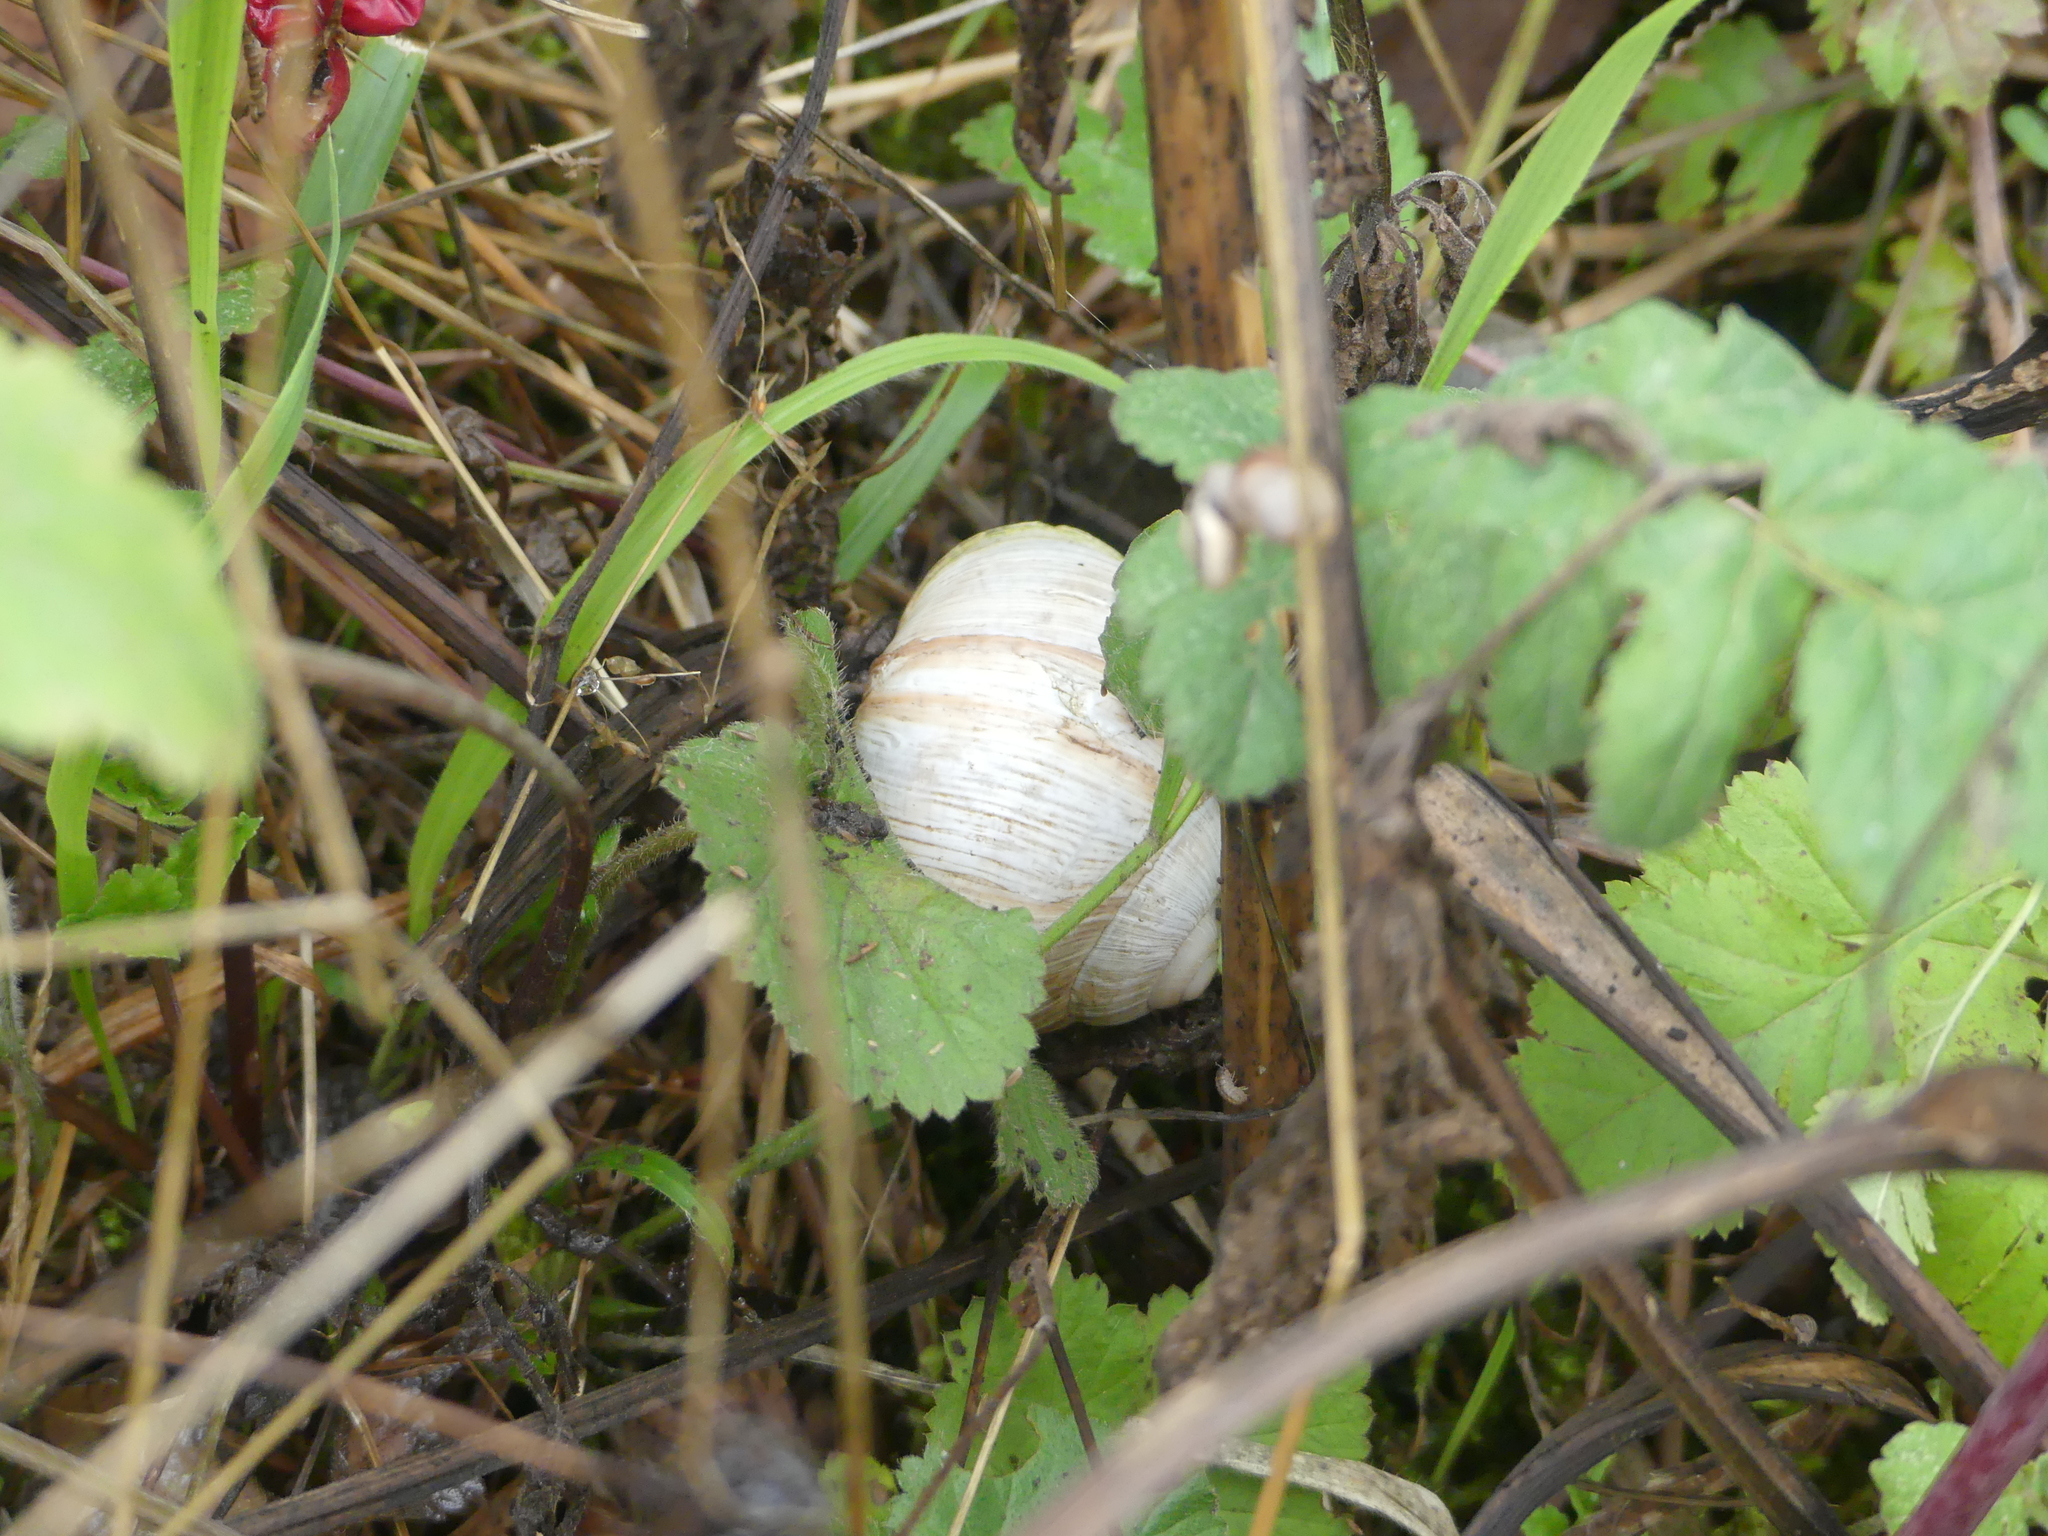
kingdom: Animalia
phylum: Mollusca
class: Gastropoda
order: Stylommatophora
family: Helicidae
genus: Helix
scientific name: Helix pomatia
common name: Roman snail
